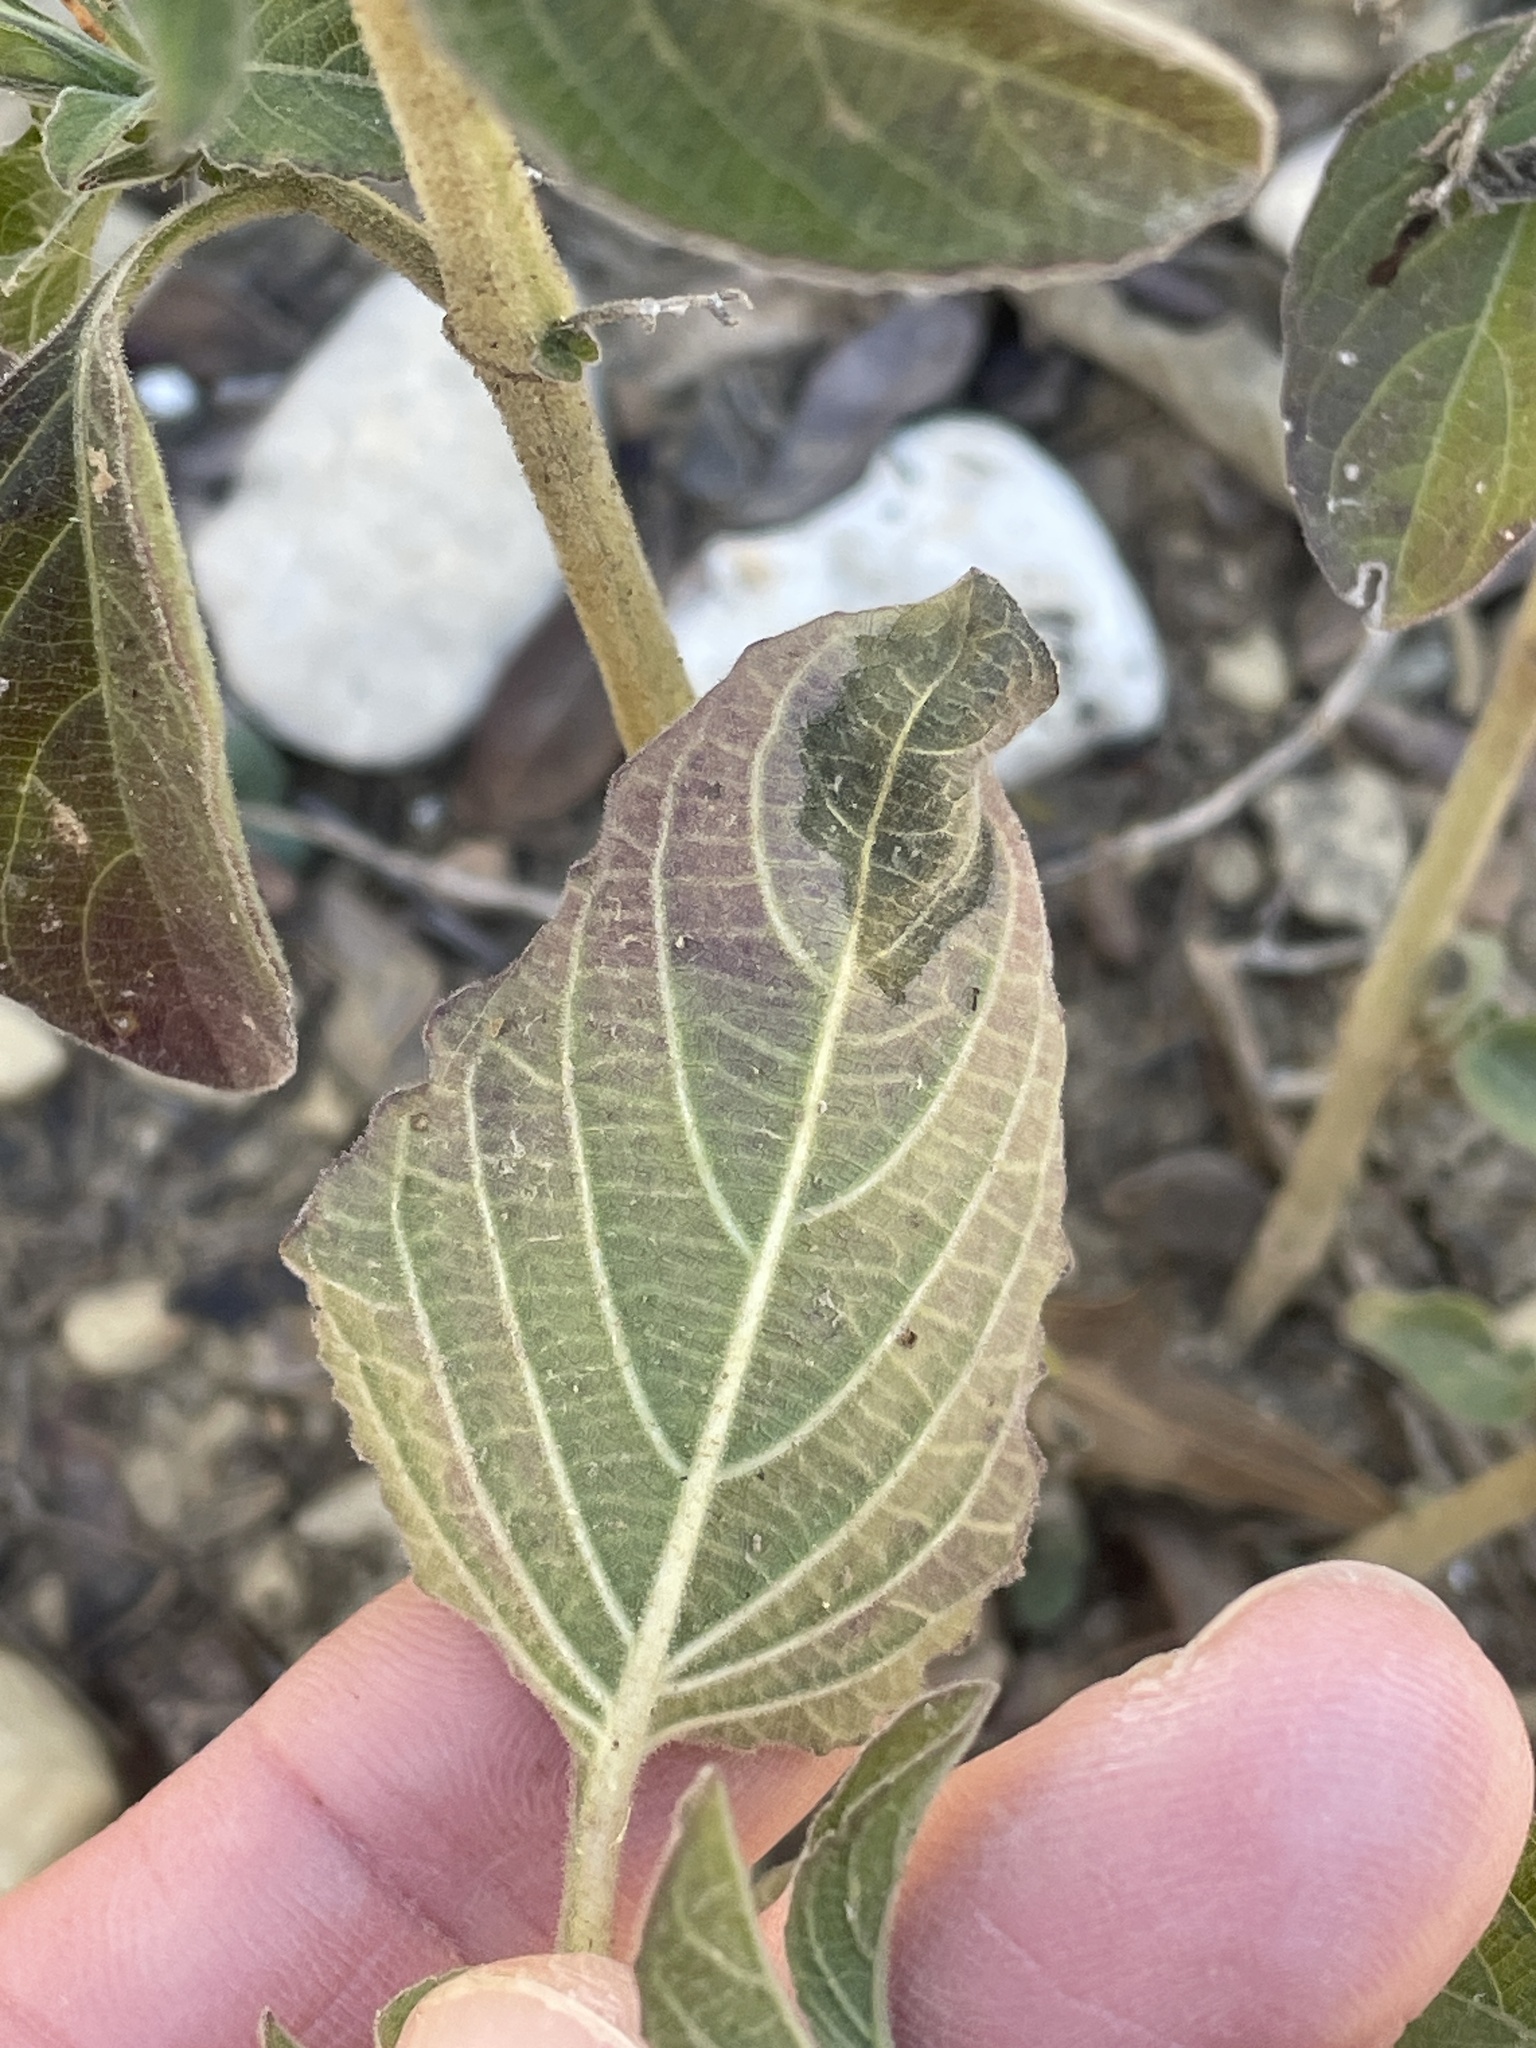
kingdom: Plantae
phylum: Tracheophyta
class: Magnoliopsida
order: Lamiales
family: Acanthaceae
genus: Ruellia
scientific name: Ruellia drummondiana
